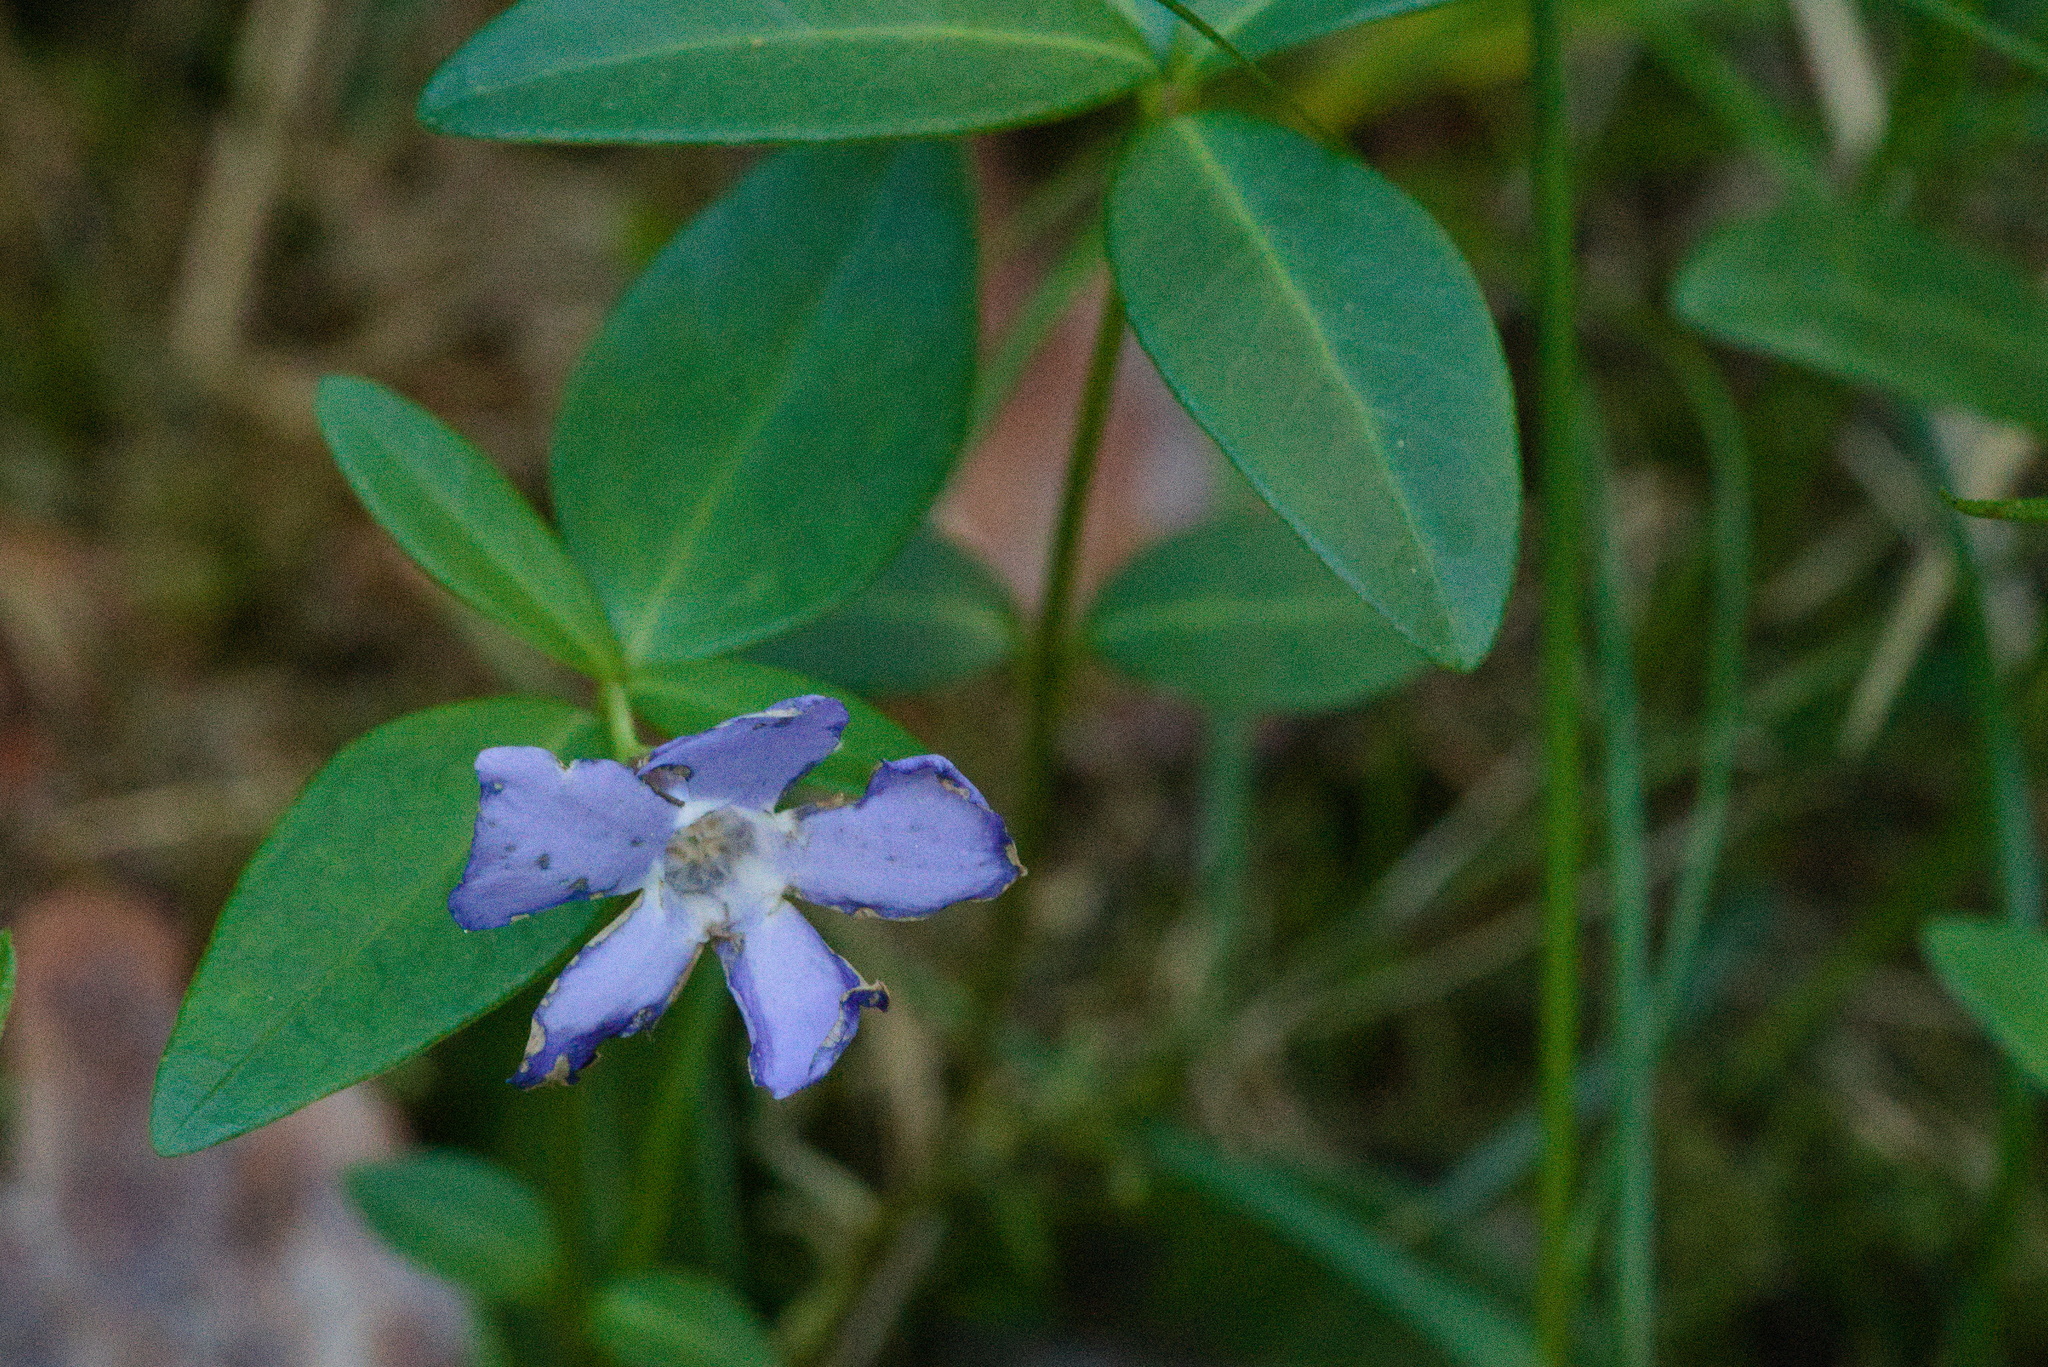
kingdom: Plantae
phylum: Tracheophyta
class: Magnoliopsida
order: Gentianales
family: Apocynaceae
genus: Vinca
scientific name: Vinca minor
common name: Lesser periwinkle
